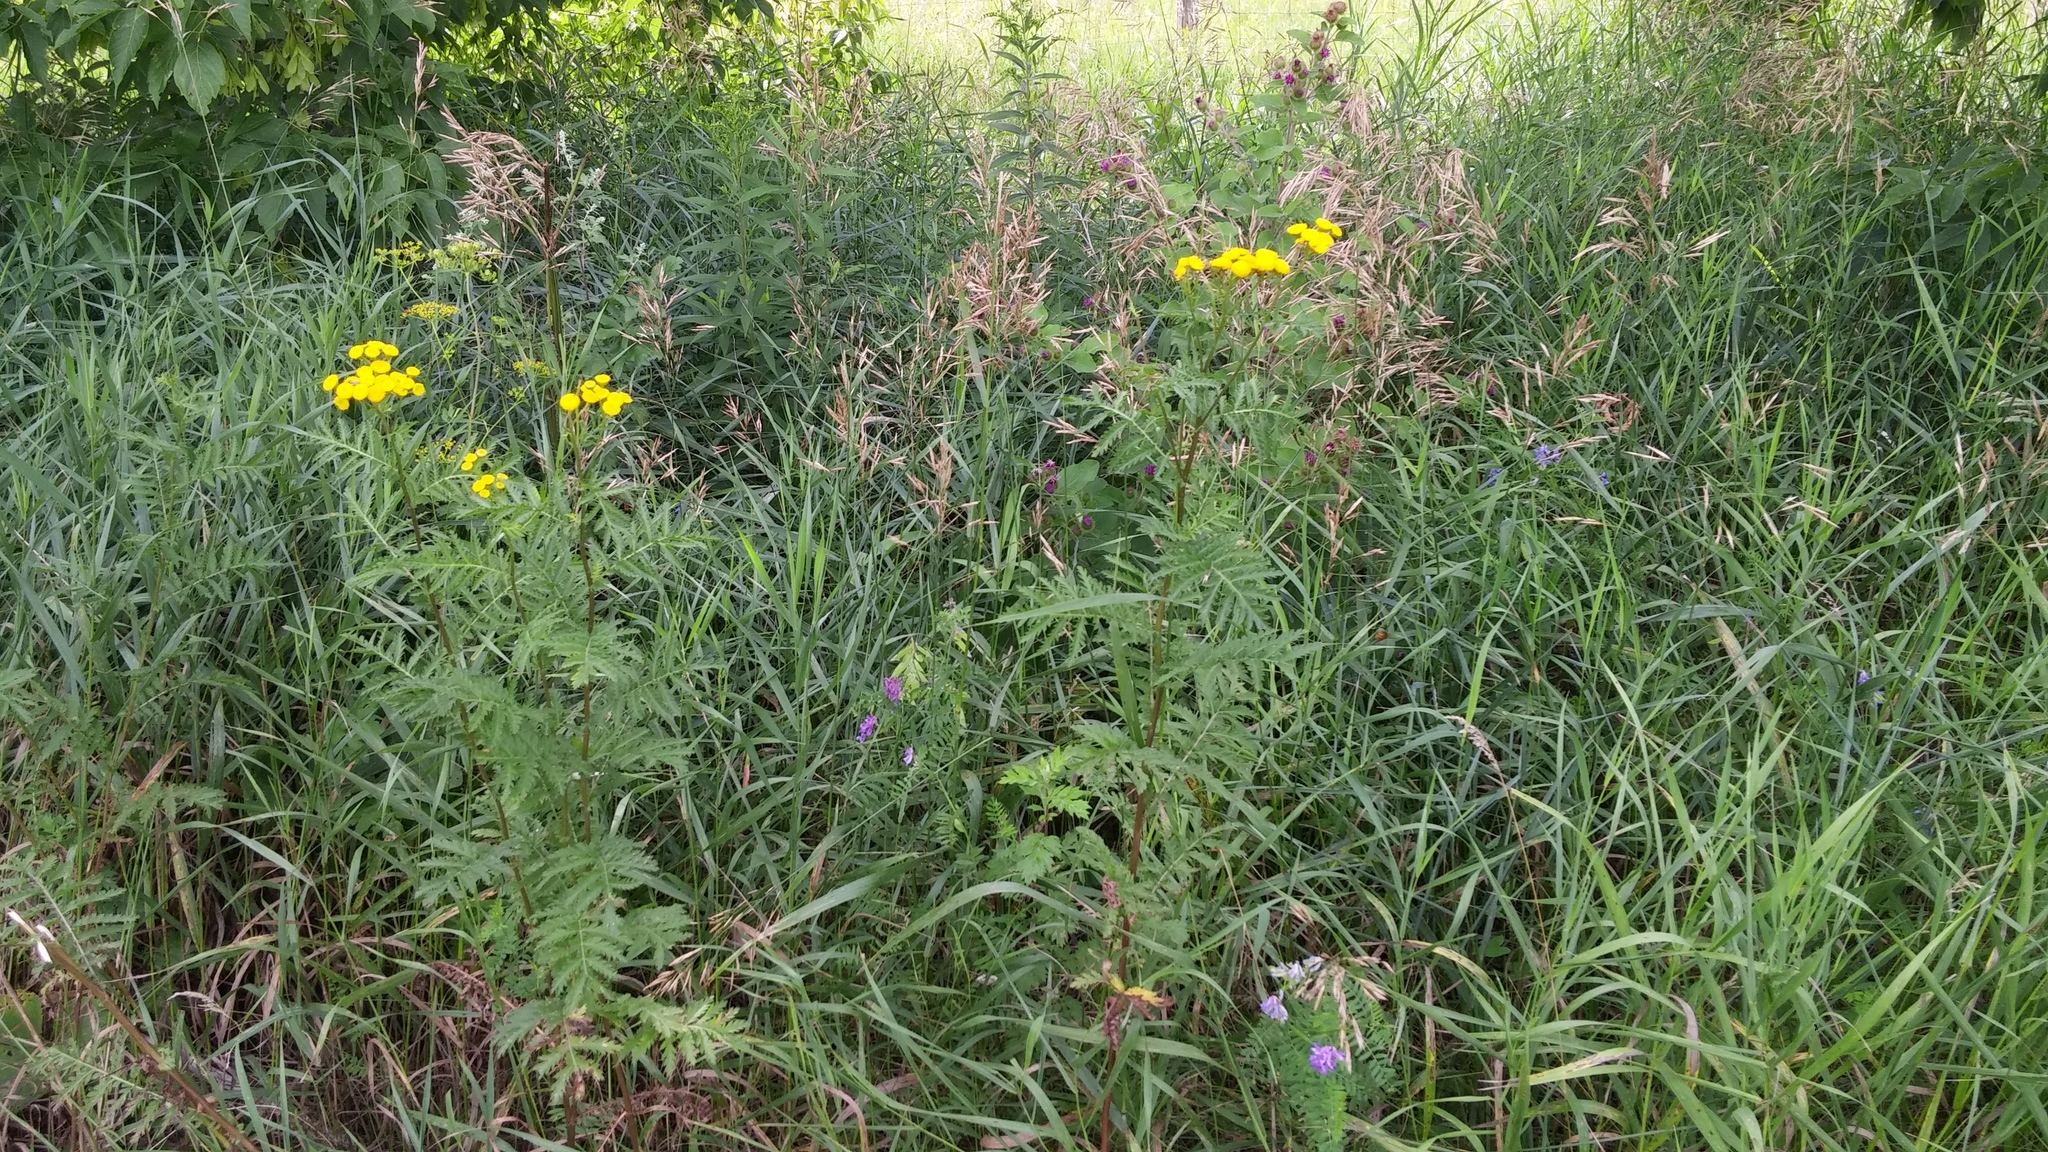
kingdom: Plantae
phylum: Tracheophyta
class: Magnoliopsida
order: Asterales
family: Asteraceae
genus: Tanacetum
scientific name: Tanacetum vulgare
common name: Common tansy
